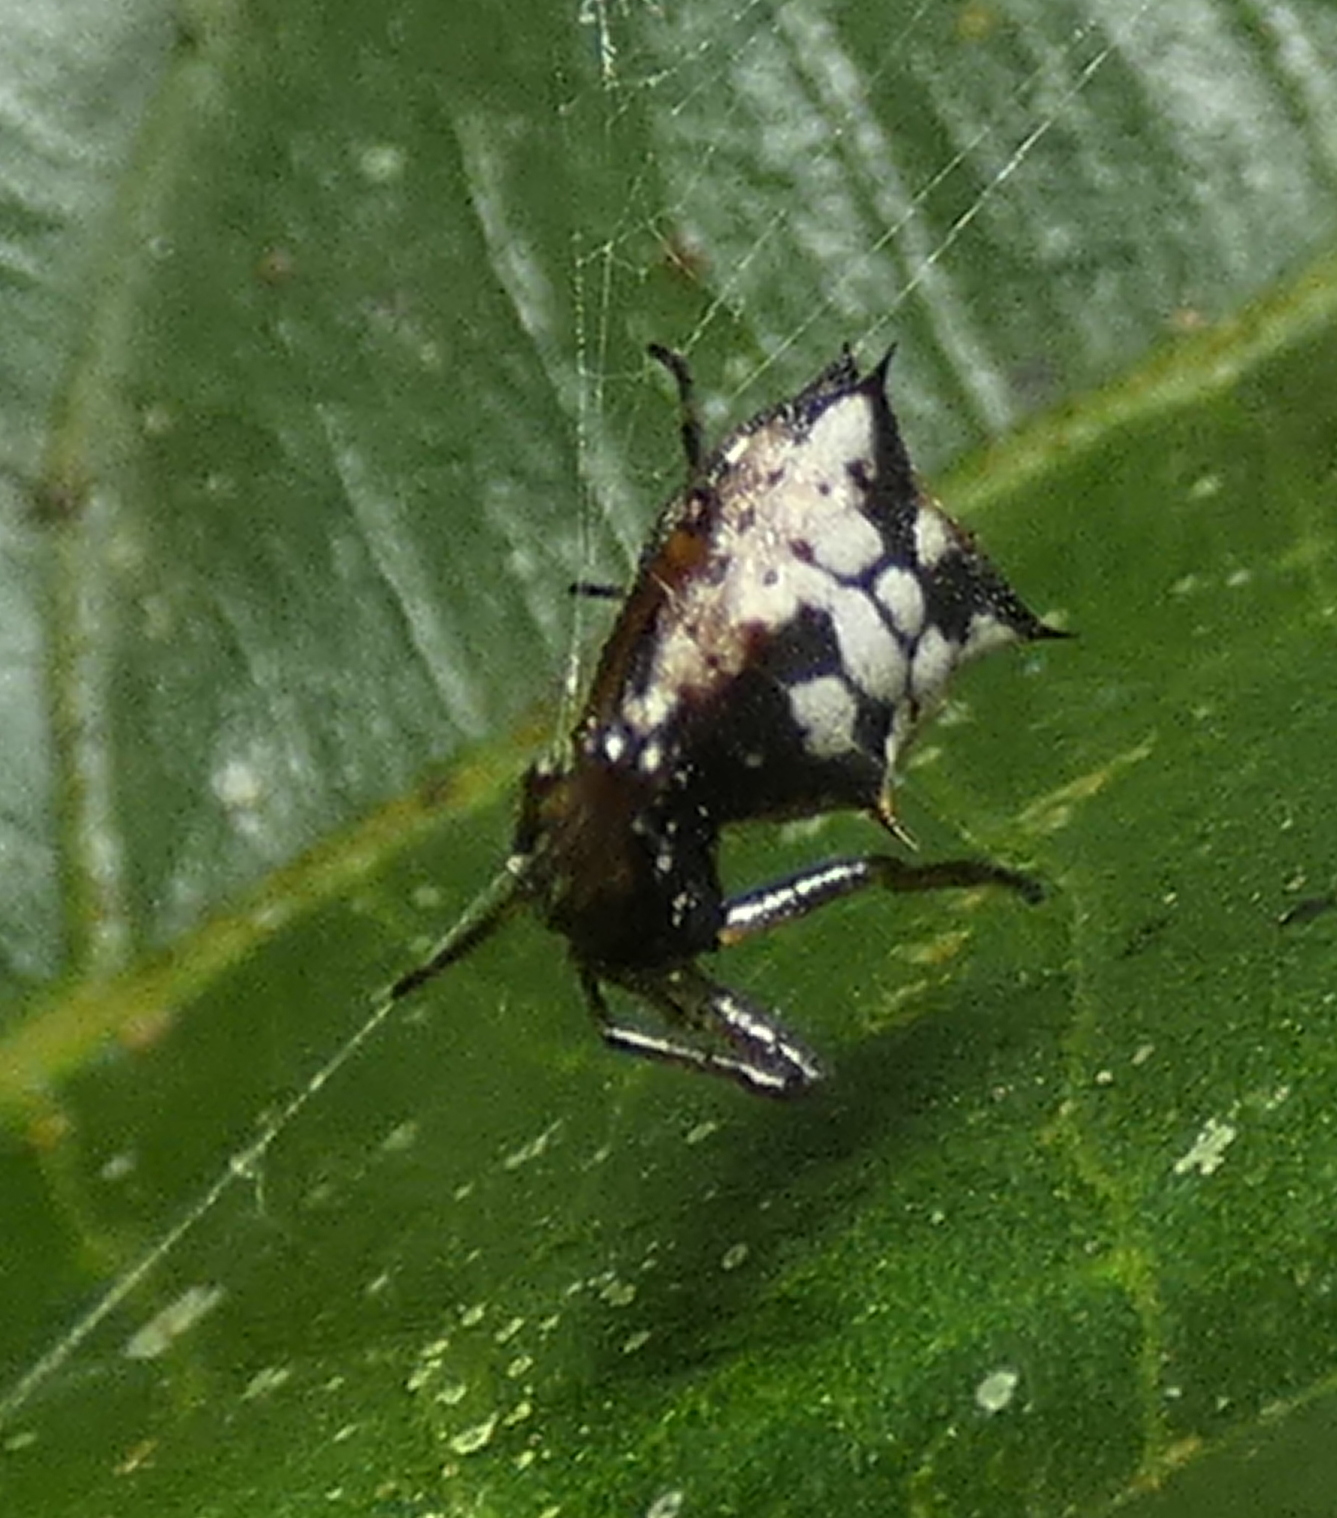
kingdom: Animalia
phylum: Arthropoda
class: Arachnida
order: Araneae
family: Araneidae
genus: Micrathena
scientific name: Micrathena picta
